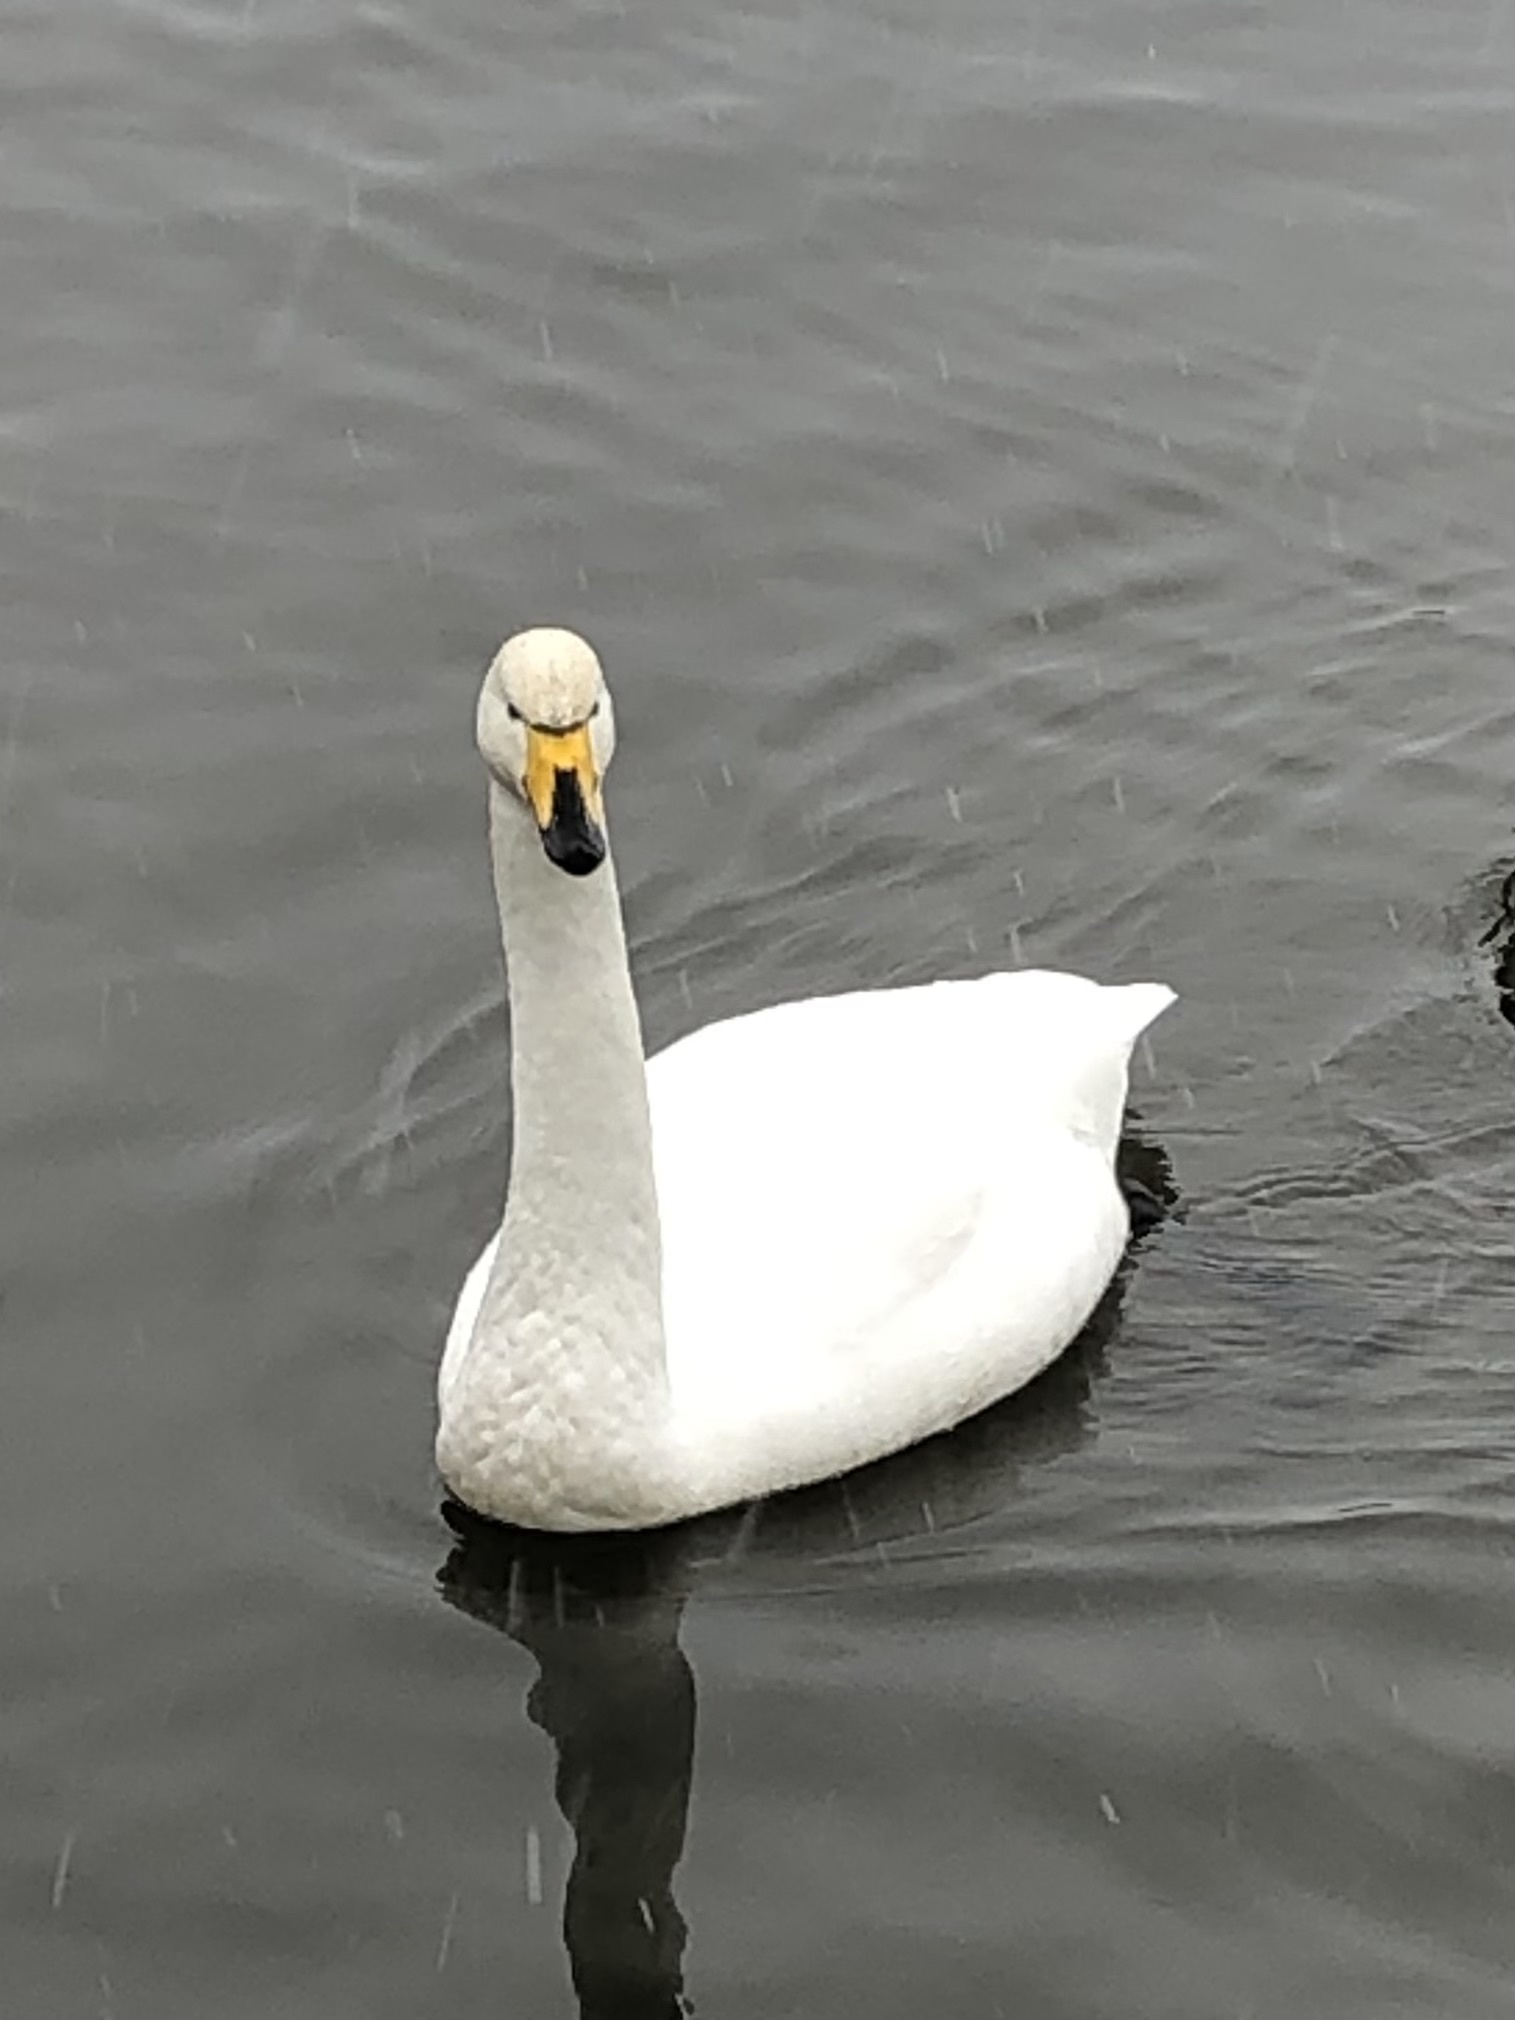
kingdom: Animalia
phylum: Chordata
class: Aves
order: Anseriformes
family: Anatidae
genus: Cygnus
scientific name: Cygnus cygnus
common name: Whooper swan
